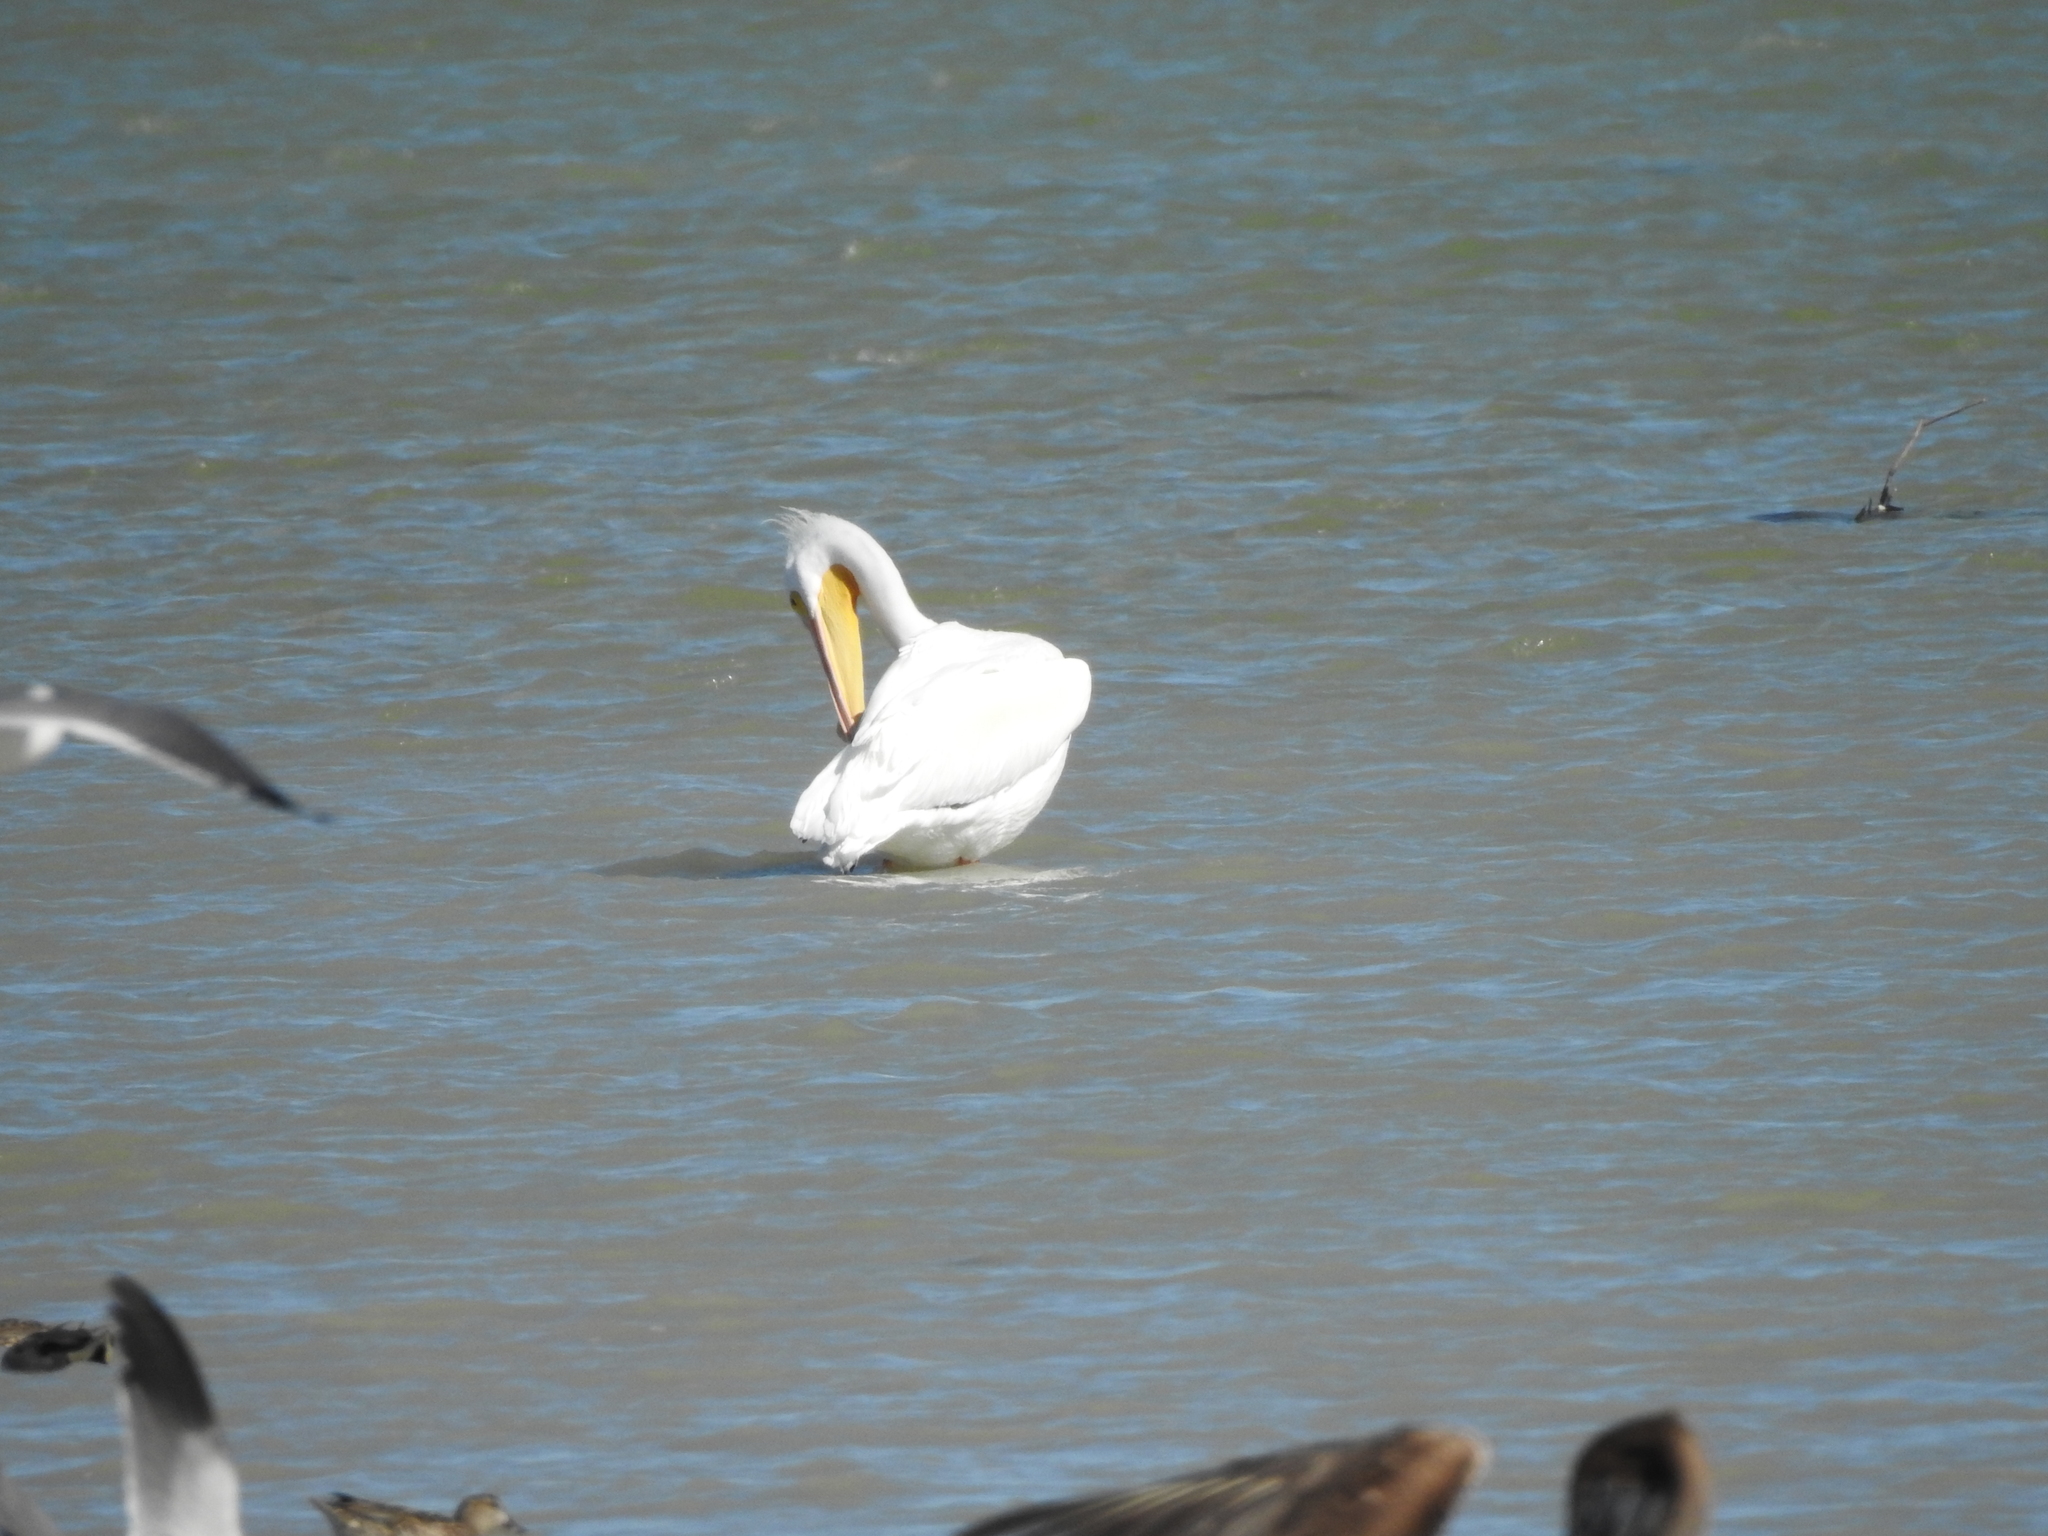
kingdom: Animalia
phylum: Chordata
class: Aves
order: Pelecaniformes
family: Pelecanidae
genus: Pelecanus
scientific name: Pelecanus erythrorhynchos
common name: American white pelican
